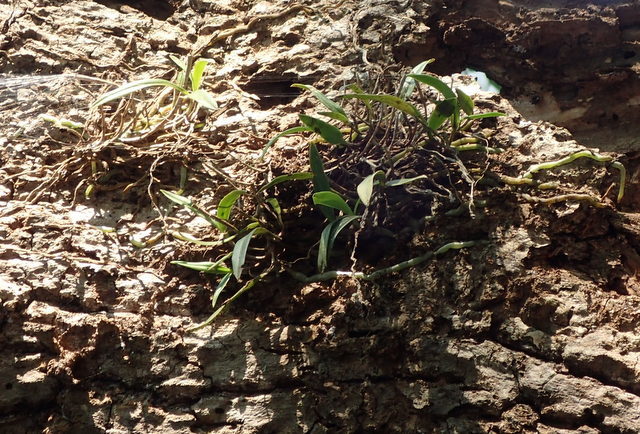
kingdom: Plantae
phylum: Tracheophyta
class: Liliopsida
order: Asparagales
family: Orchidaceae
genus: Epidendrum
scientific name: Epidendrum conopseum
